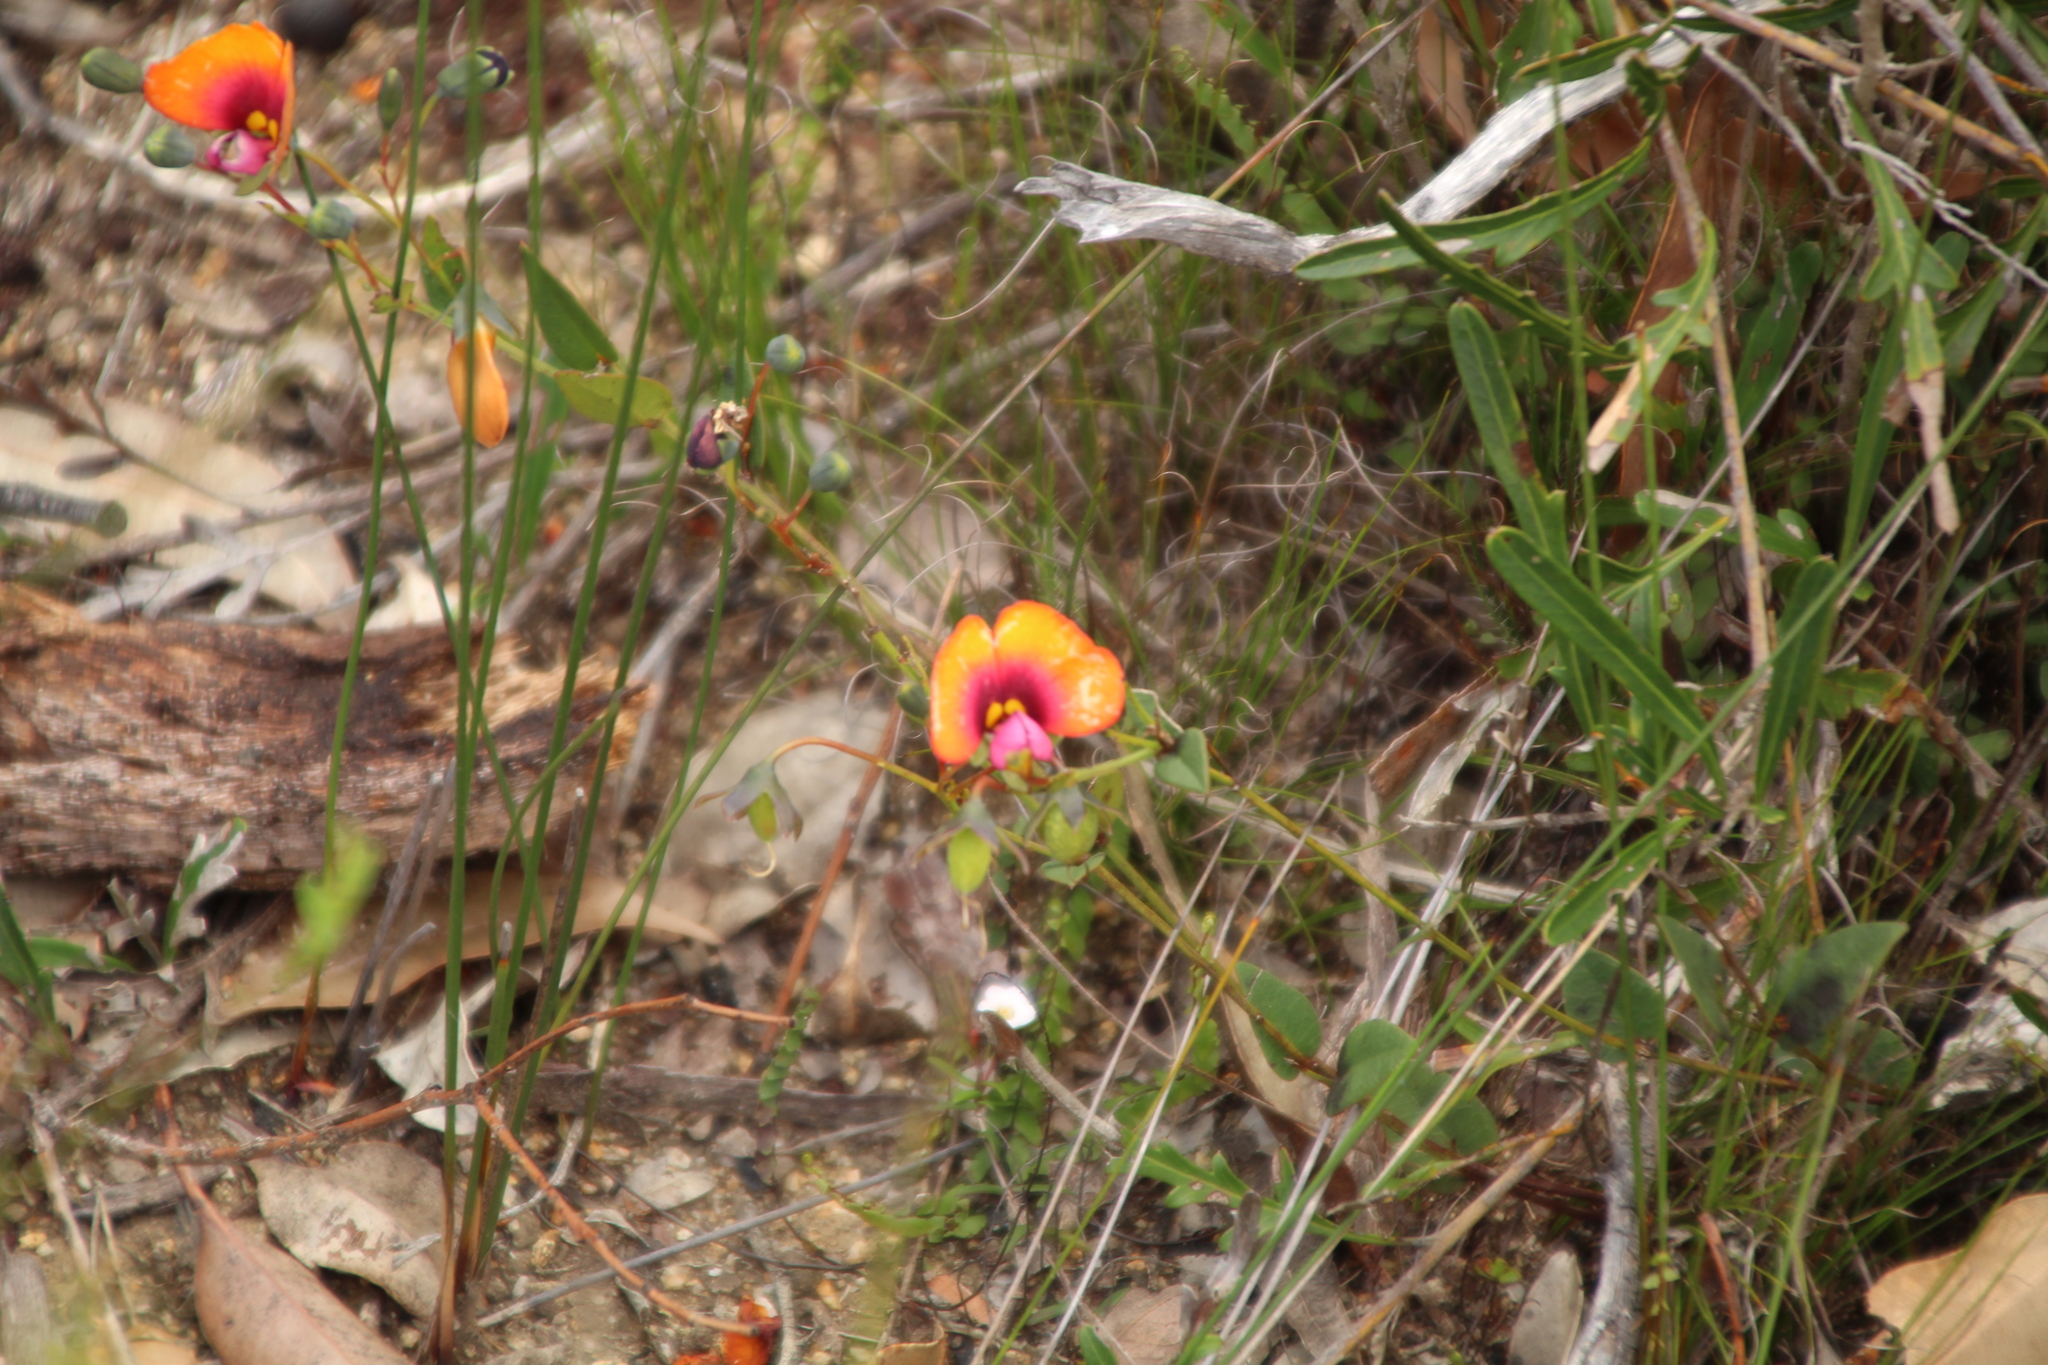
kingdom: Plantae
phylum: Tracheophyta
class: Magnoliopsida
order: Fabales
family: Fabaceae
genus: Gompholobium
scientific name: Gompholobium ovatum
